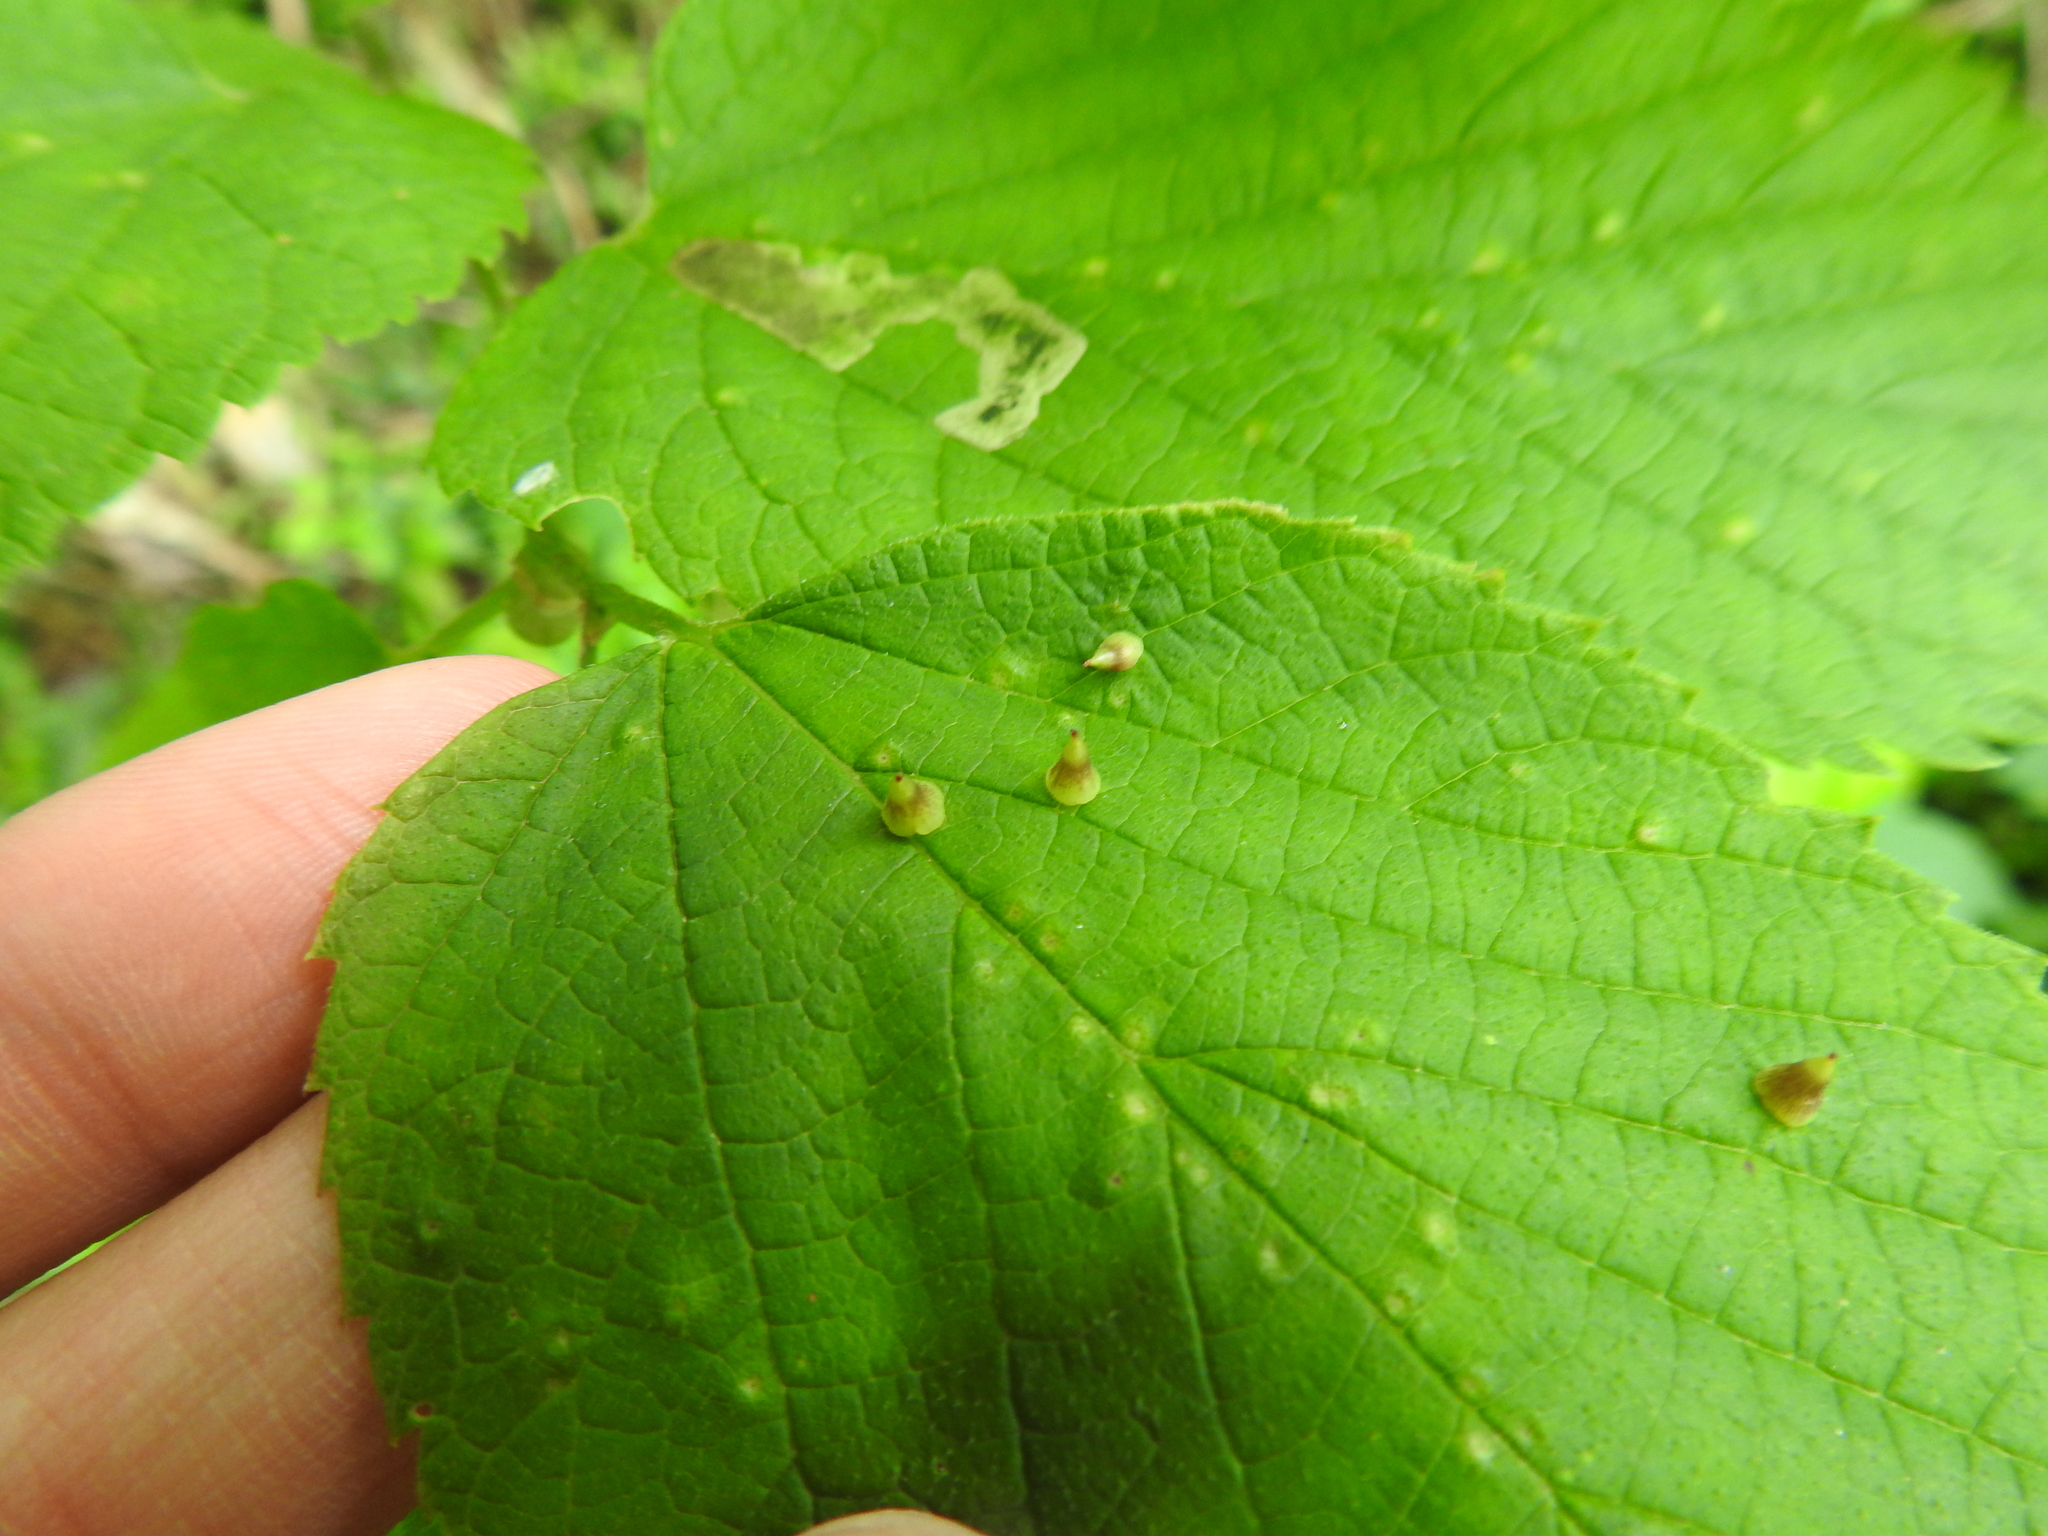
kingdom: Animalia
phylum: Arthropoda
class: Insecta
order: Diptera
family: Cecidomyiidae
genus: Celticecis
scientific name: Celticecis spiniformis
